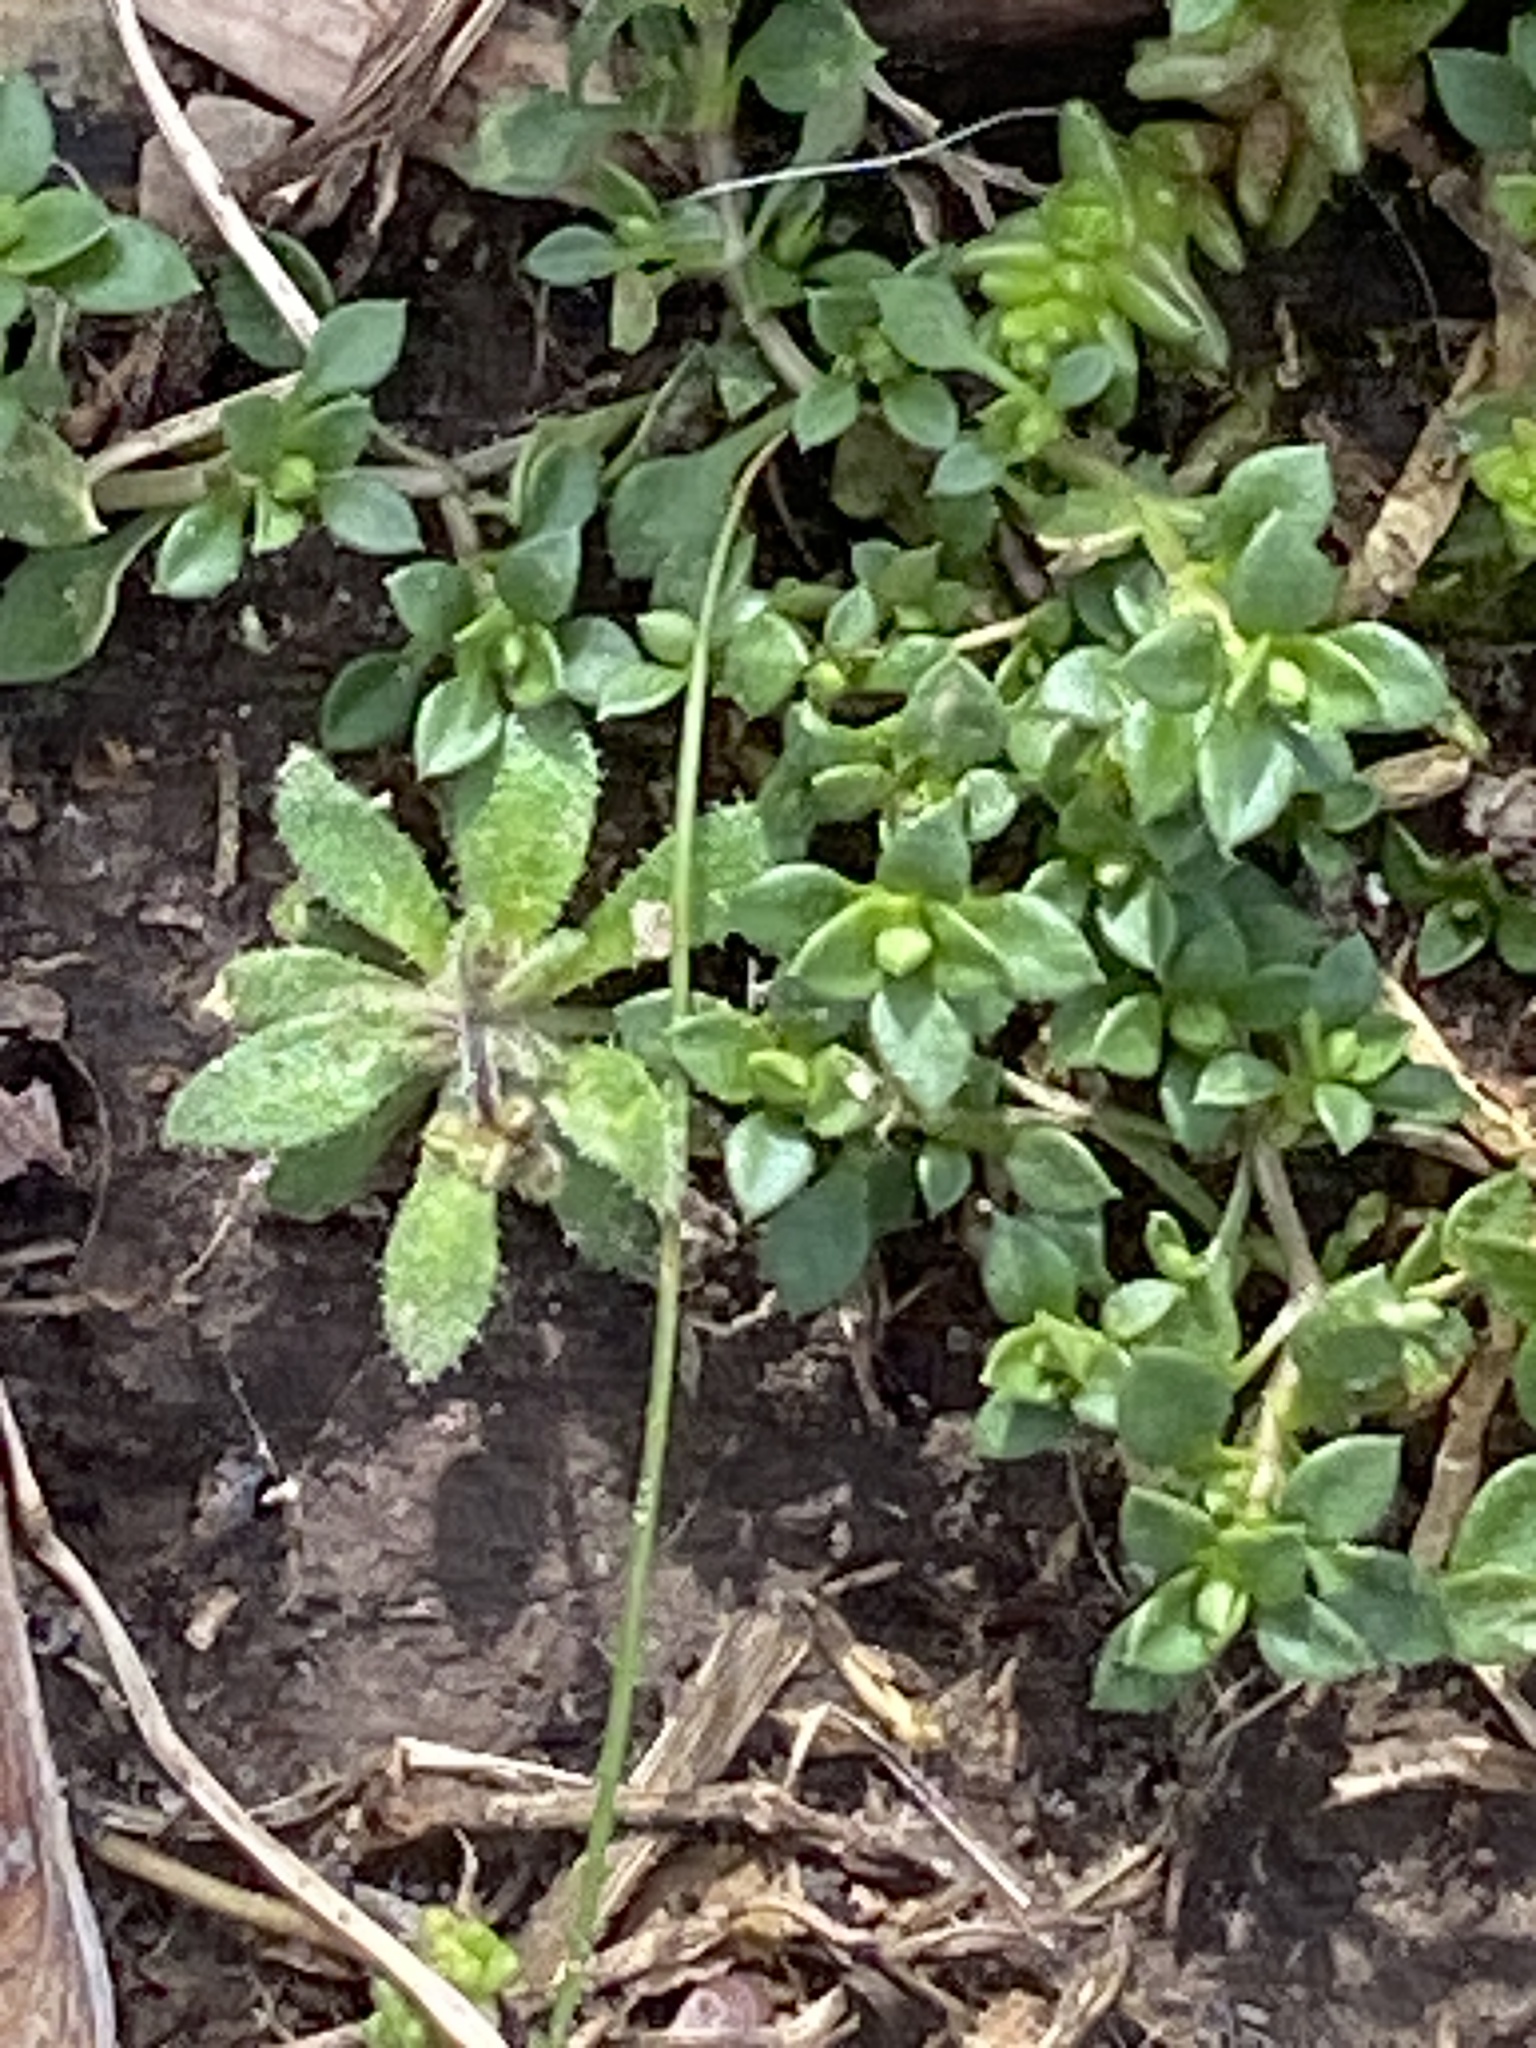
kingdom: Plantae
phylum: Tracheophyta
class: Magnoliopsida
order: Caryophyllales
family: Caryophyllaceae
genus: Stellaria
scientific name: Stellaria media
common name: Common chickweed
